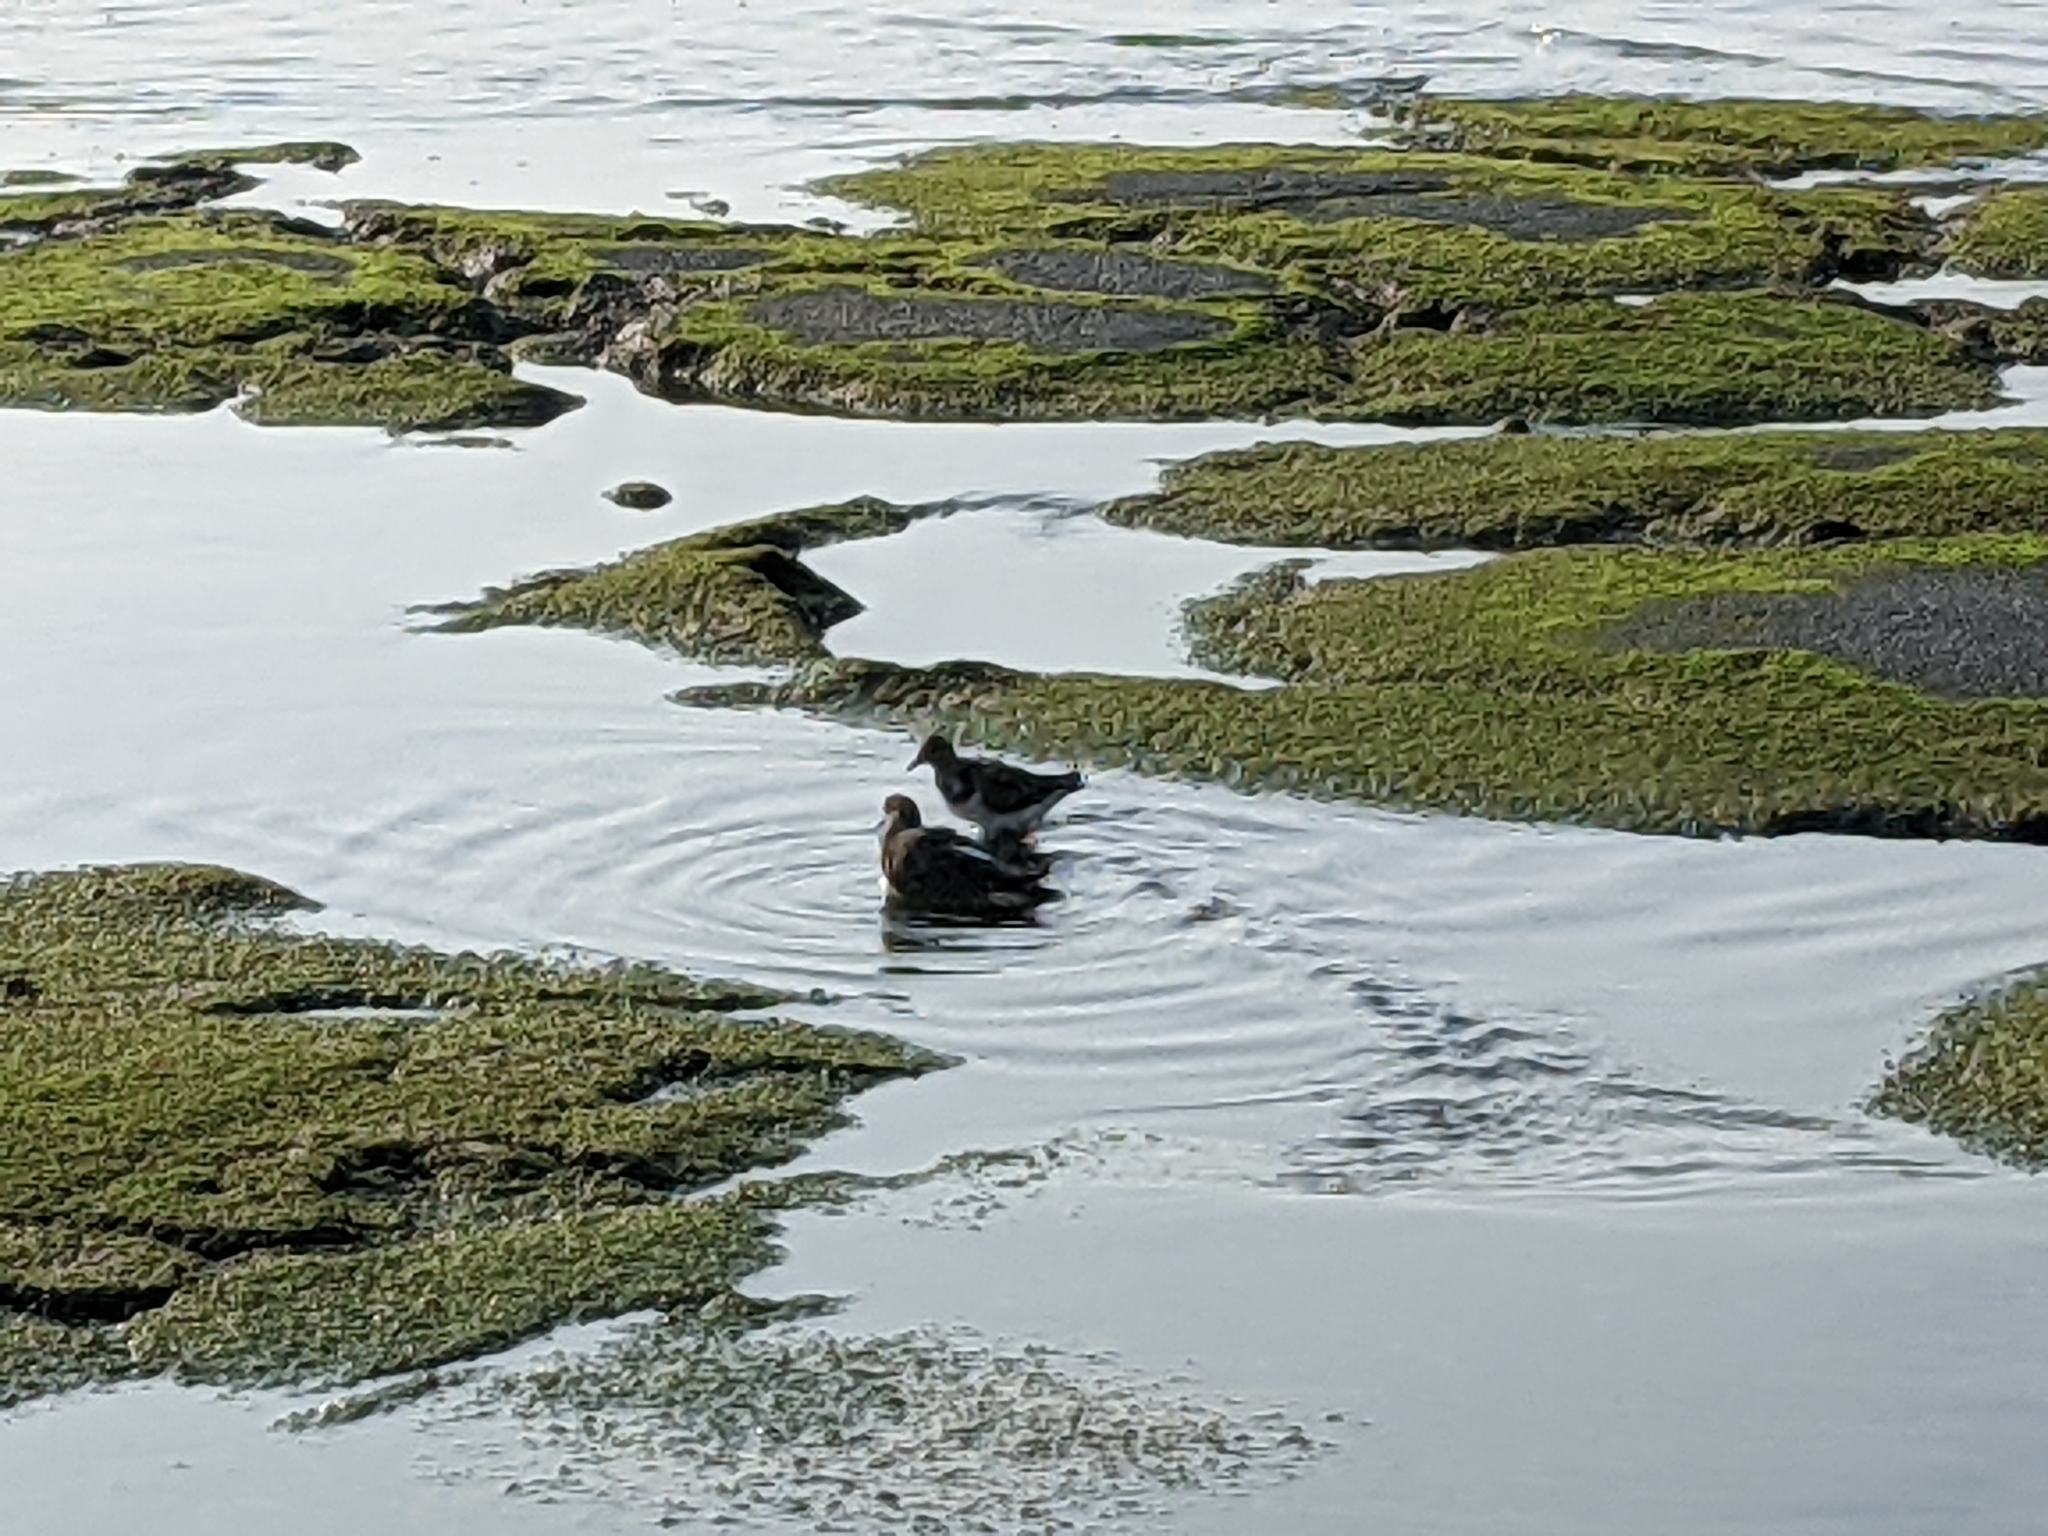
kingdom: Animalia
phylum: Chordata
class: Aves
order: Charadriiformes
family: Scolopacidae
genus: Arenaria
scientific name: Arenaria interpres
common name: Ruddy turnstone
